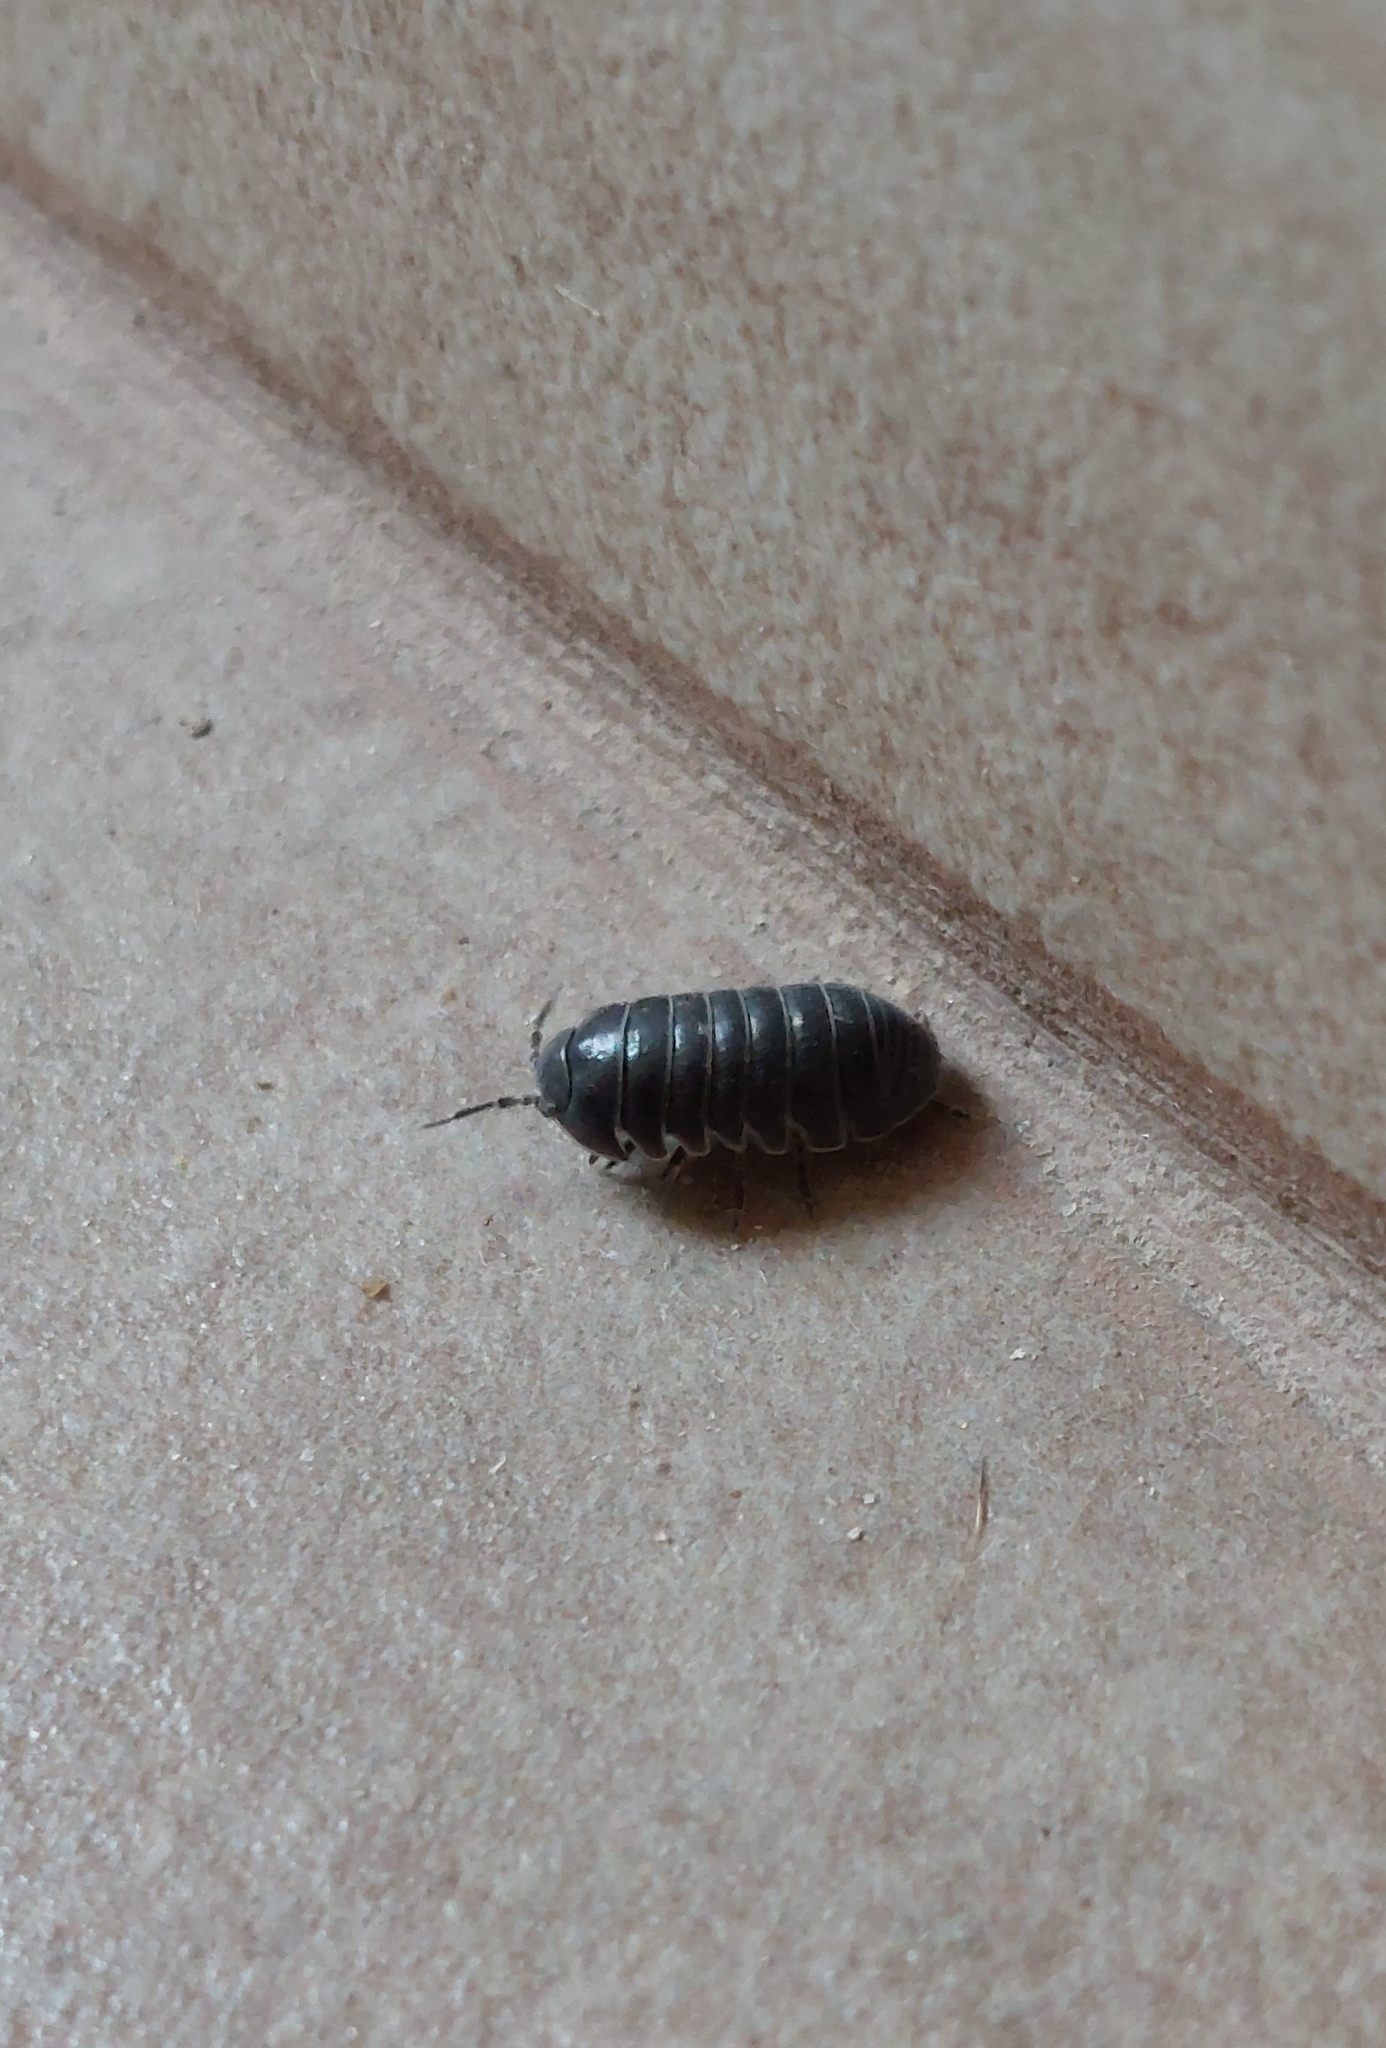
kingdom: Animalia
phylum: Arthropoda
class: Malacostraca
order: Isopoda
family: Armadillidiidae
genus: Armadillidium
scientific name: Armadillidium vulgare
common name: Common pill woodlouse
